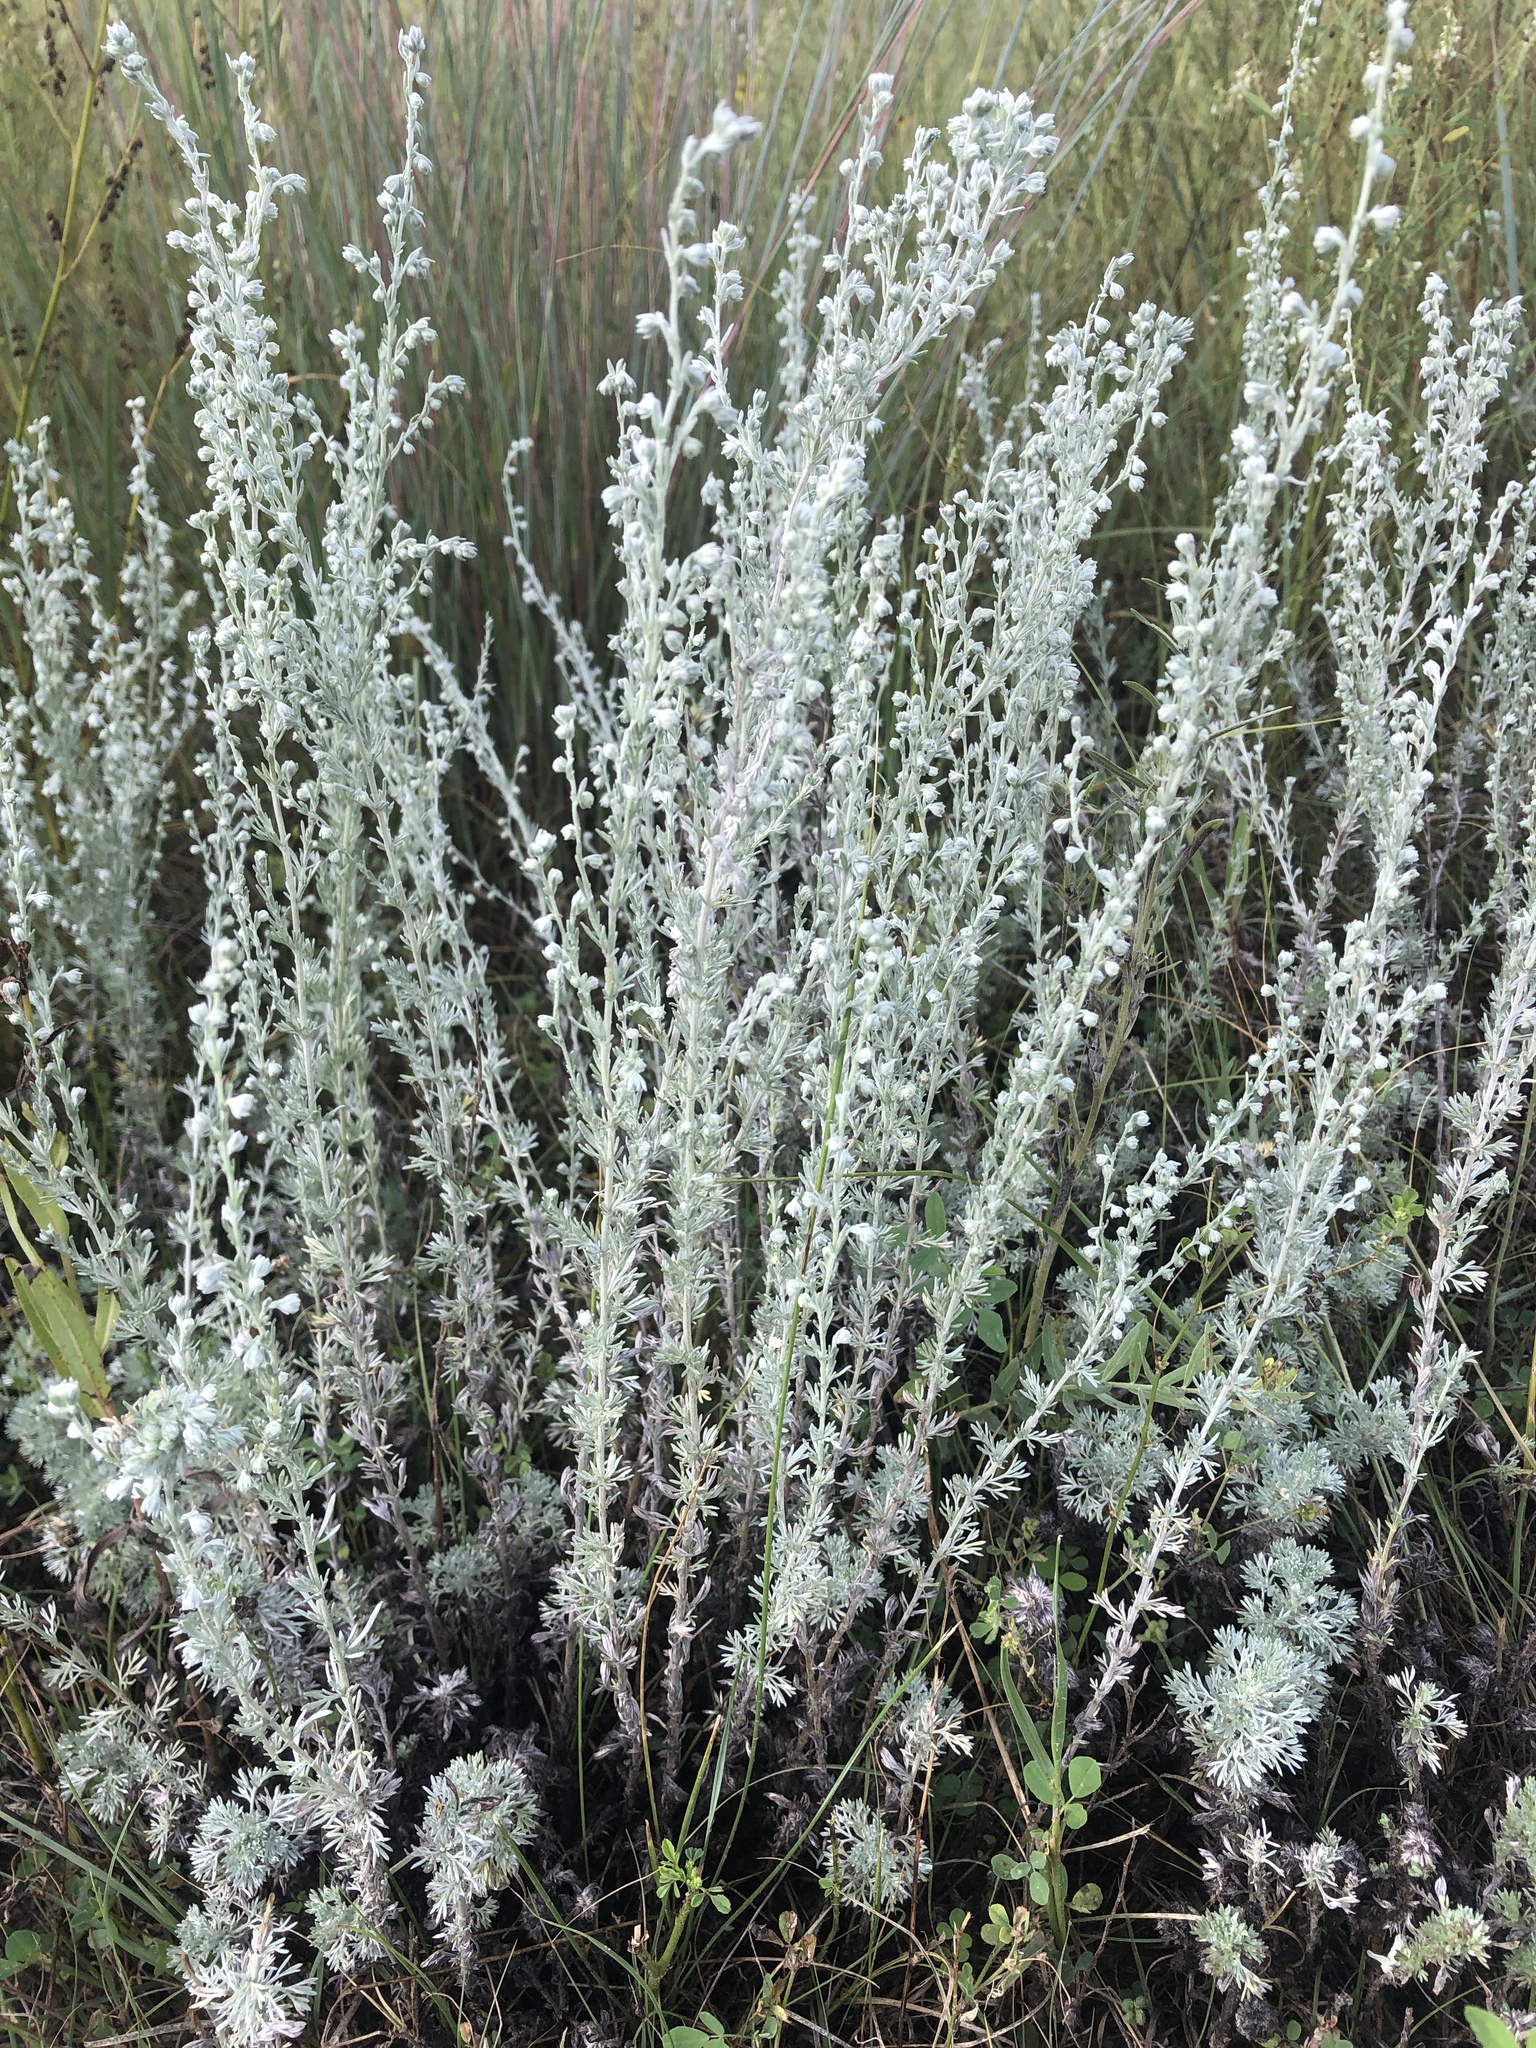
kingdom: Plantae
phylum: Tracheophyta
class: Magnoliopsida
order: Asterales
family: Asteraceae
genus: Artemisia
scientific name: Artemisia frigida
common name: Prairie sagewort
